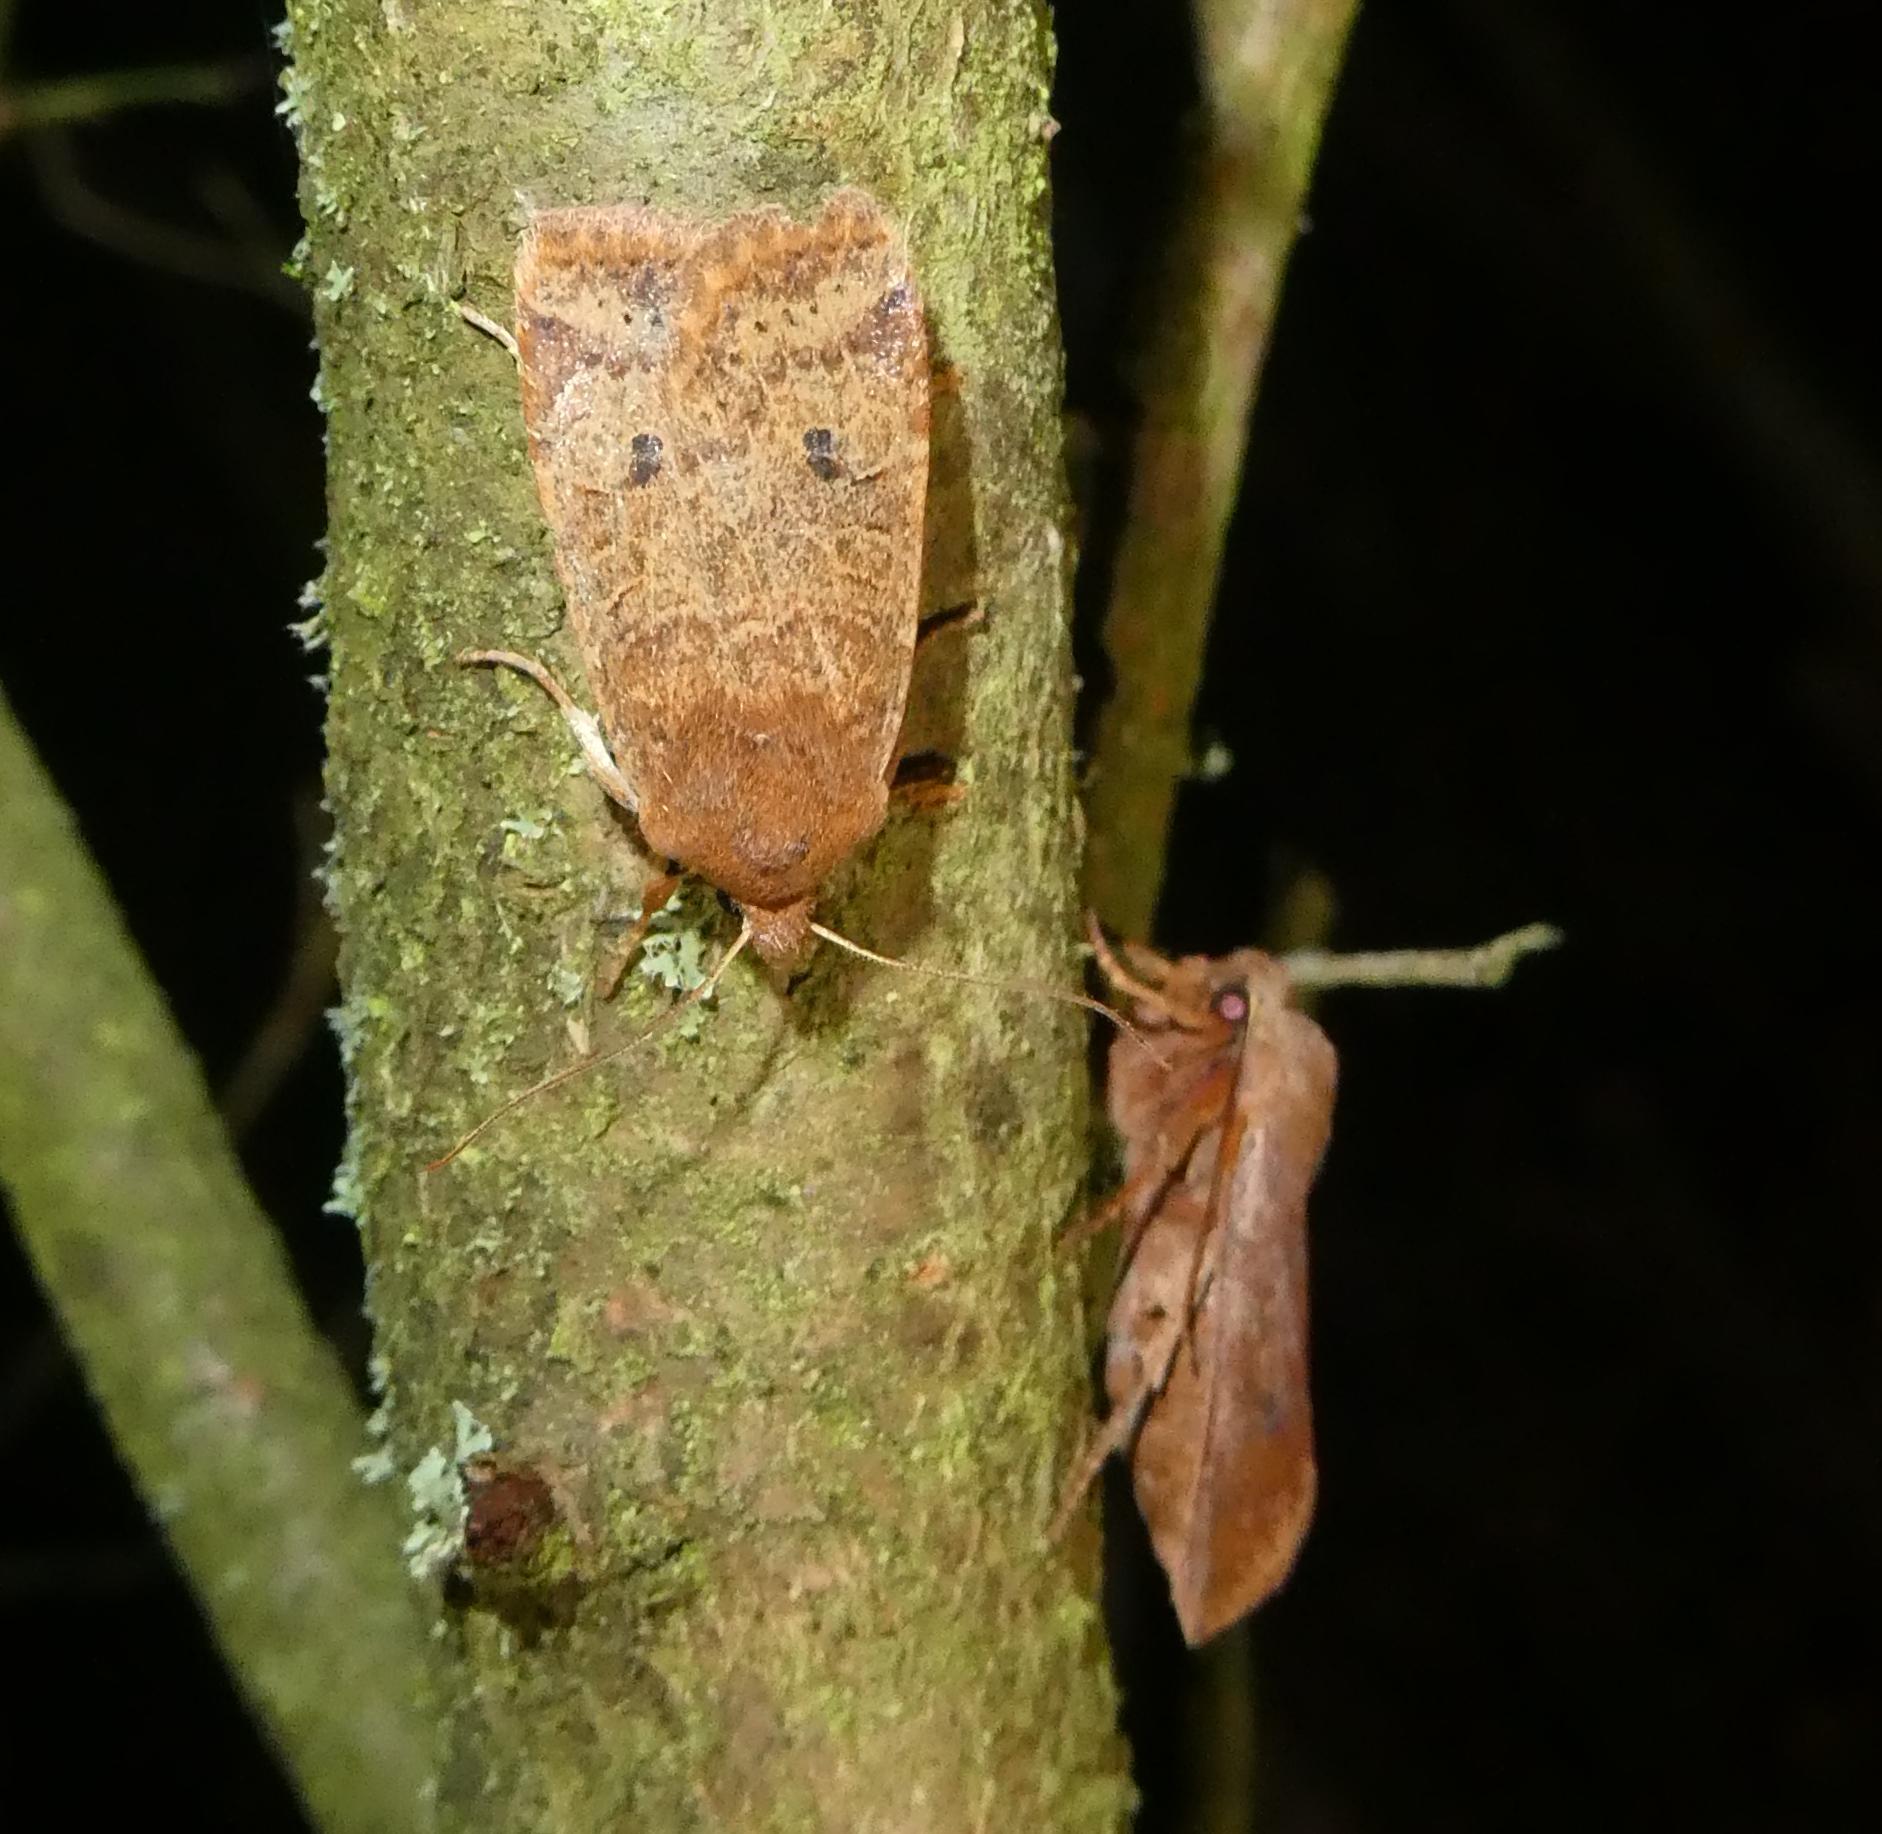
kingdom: Animalia
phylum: Arthropoda
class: Insecta
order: Lepidoptera
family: Noctuidae
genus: Conistra
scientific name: Conistra vaccinii
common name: Chestnut
